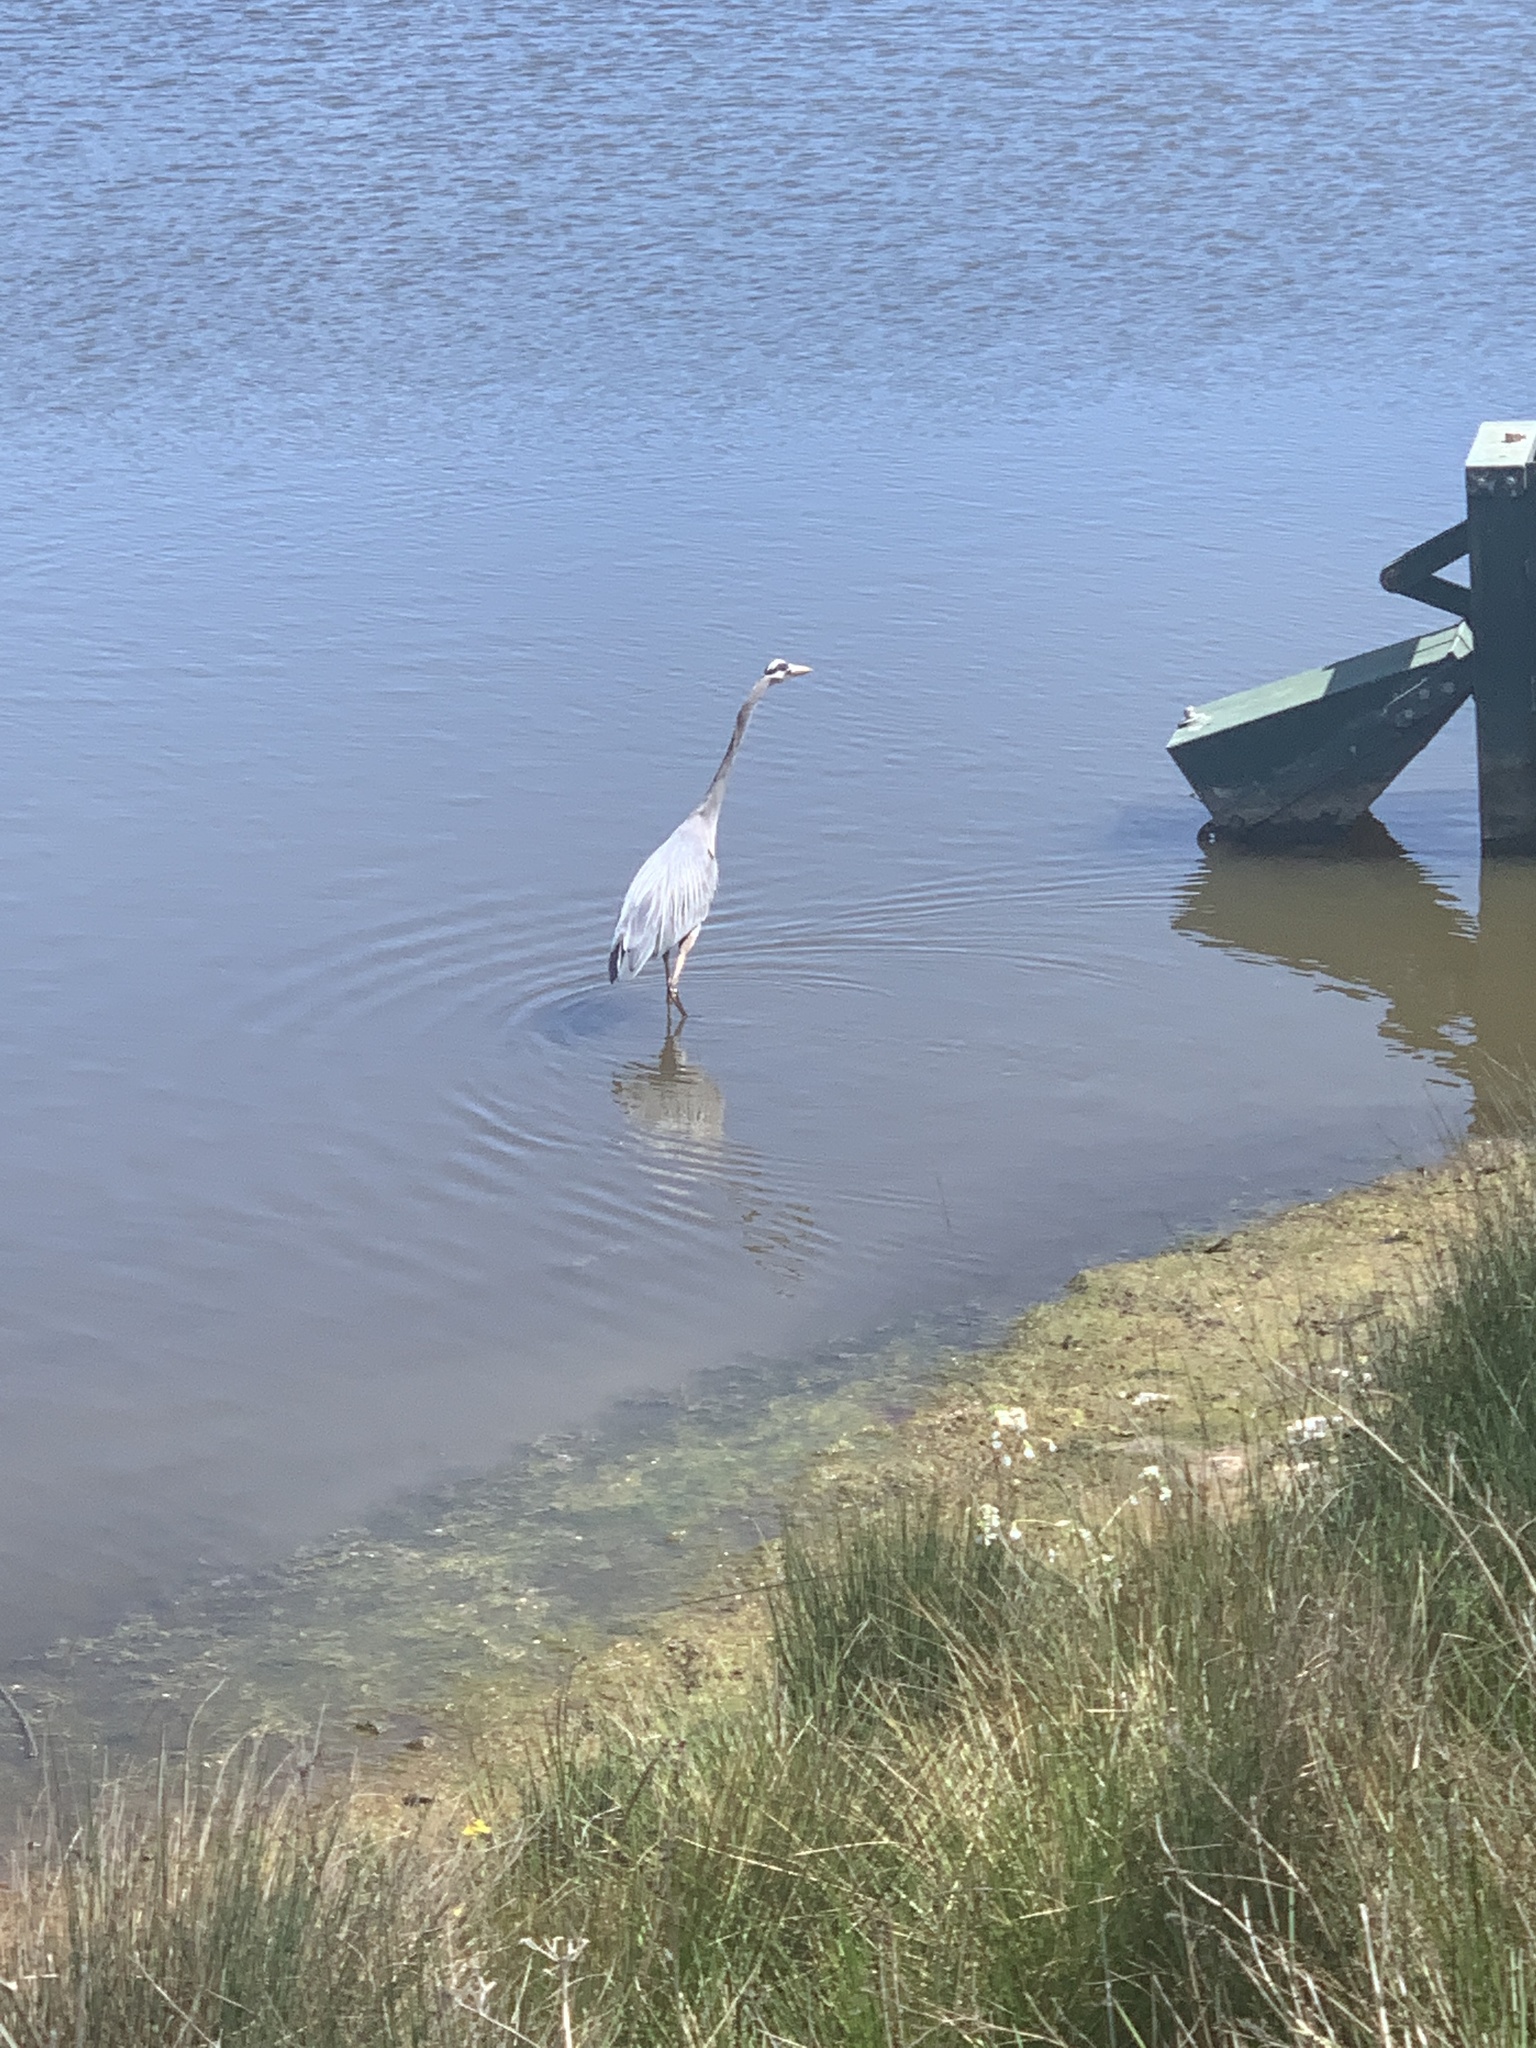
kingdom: Animalia
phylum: Chordata
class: Aves
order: Pelecaniformes
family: Ardeidae
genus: Ardea
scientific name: Ardea herodias
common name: Great blue heron
